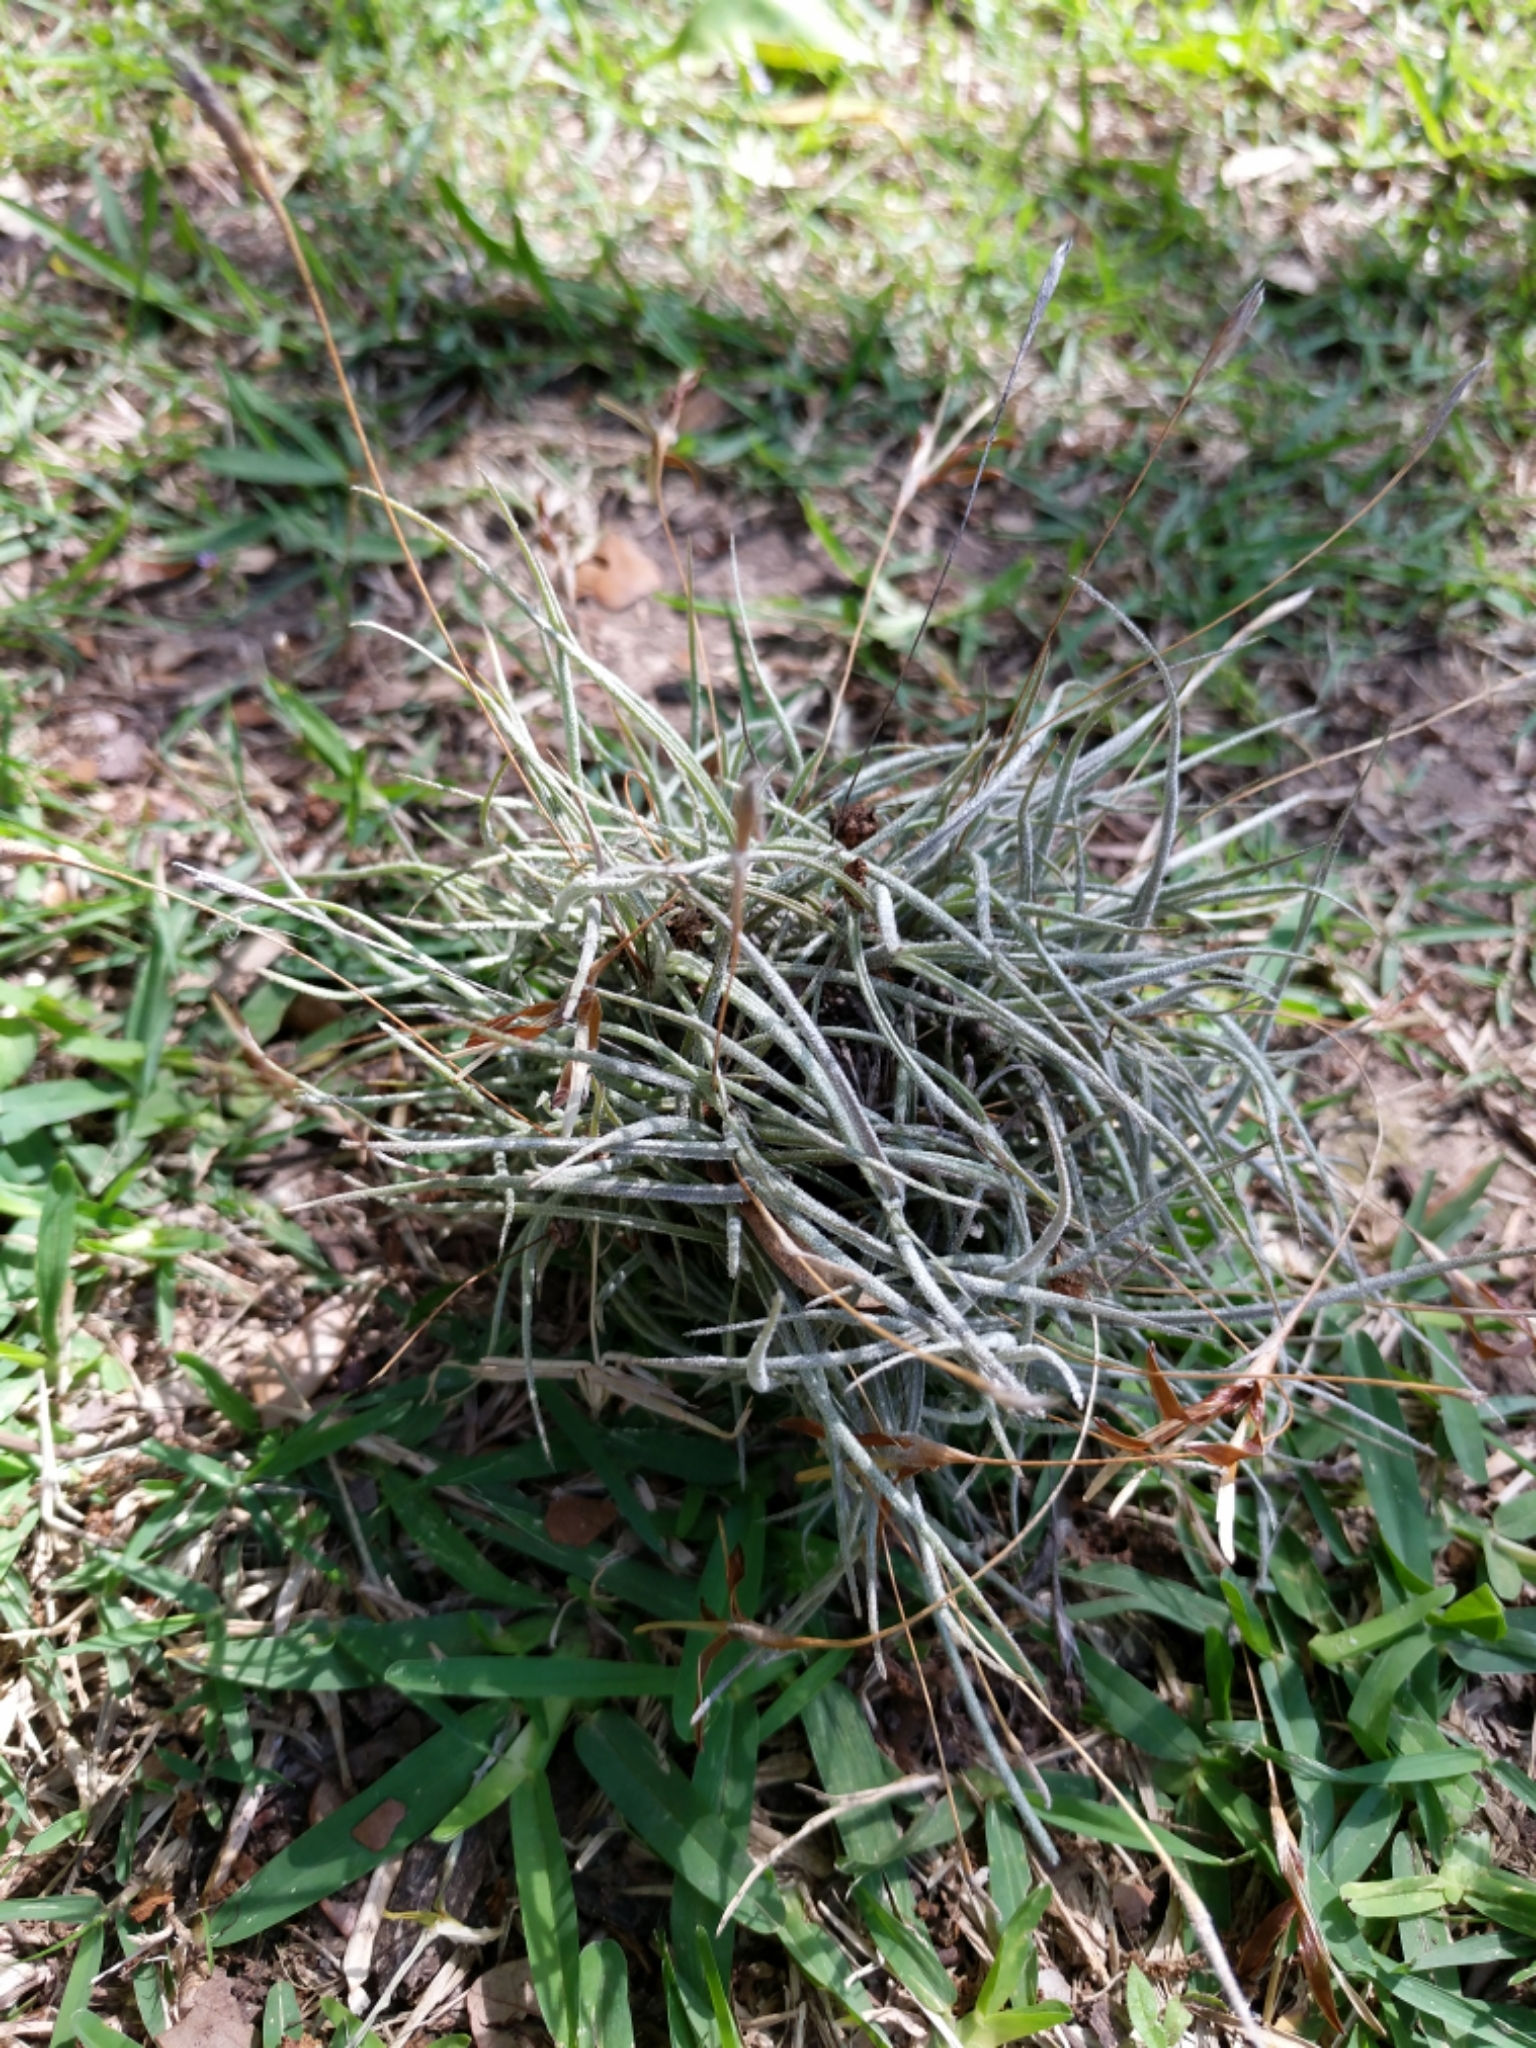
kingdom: Plantae
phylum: Tracheophyta
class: Liliopsida
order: Poales
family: Bromeliaceae
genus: Tillandsia
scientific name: Tillandsia recurvata
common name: Small ballmoss
